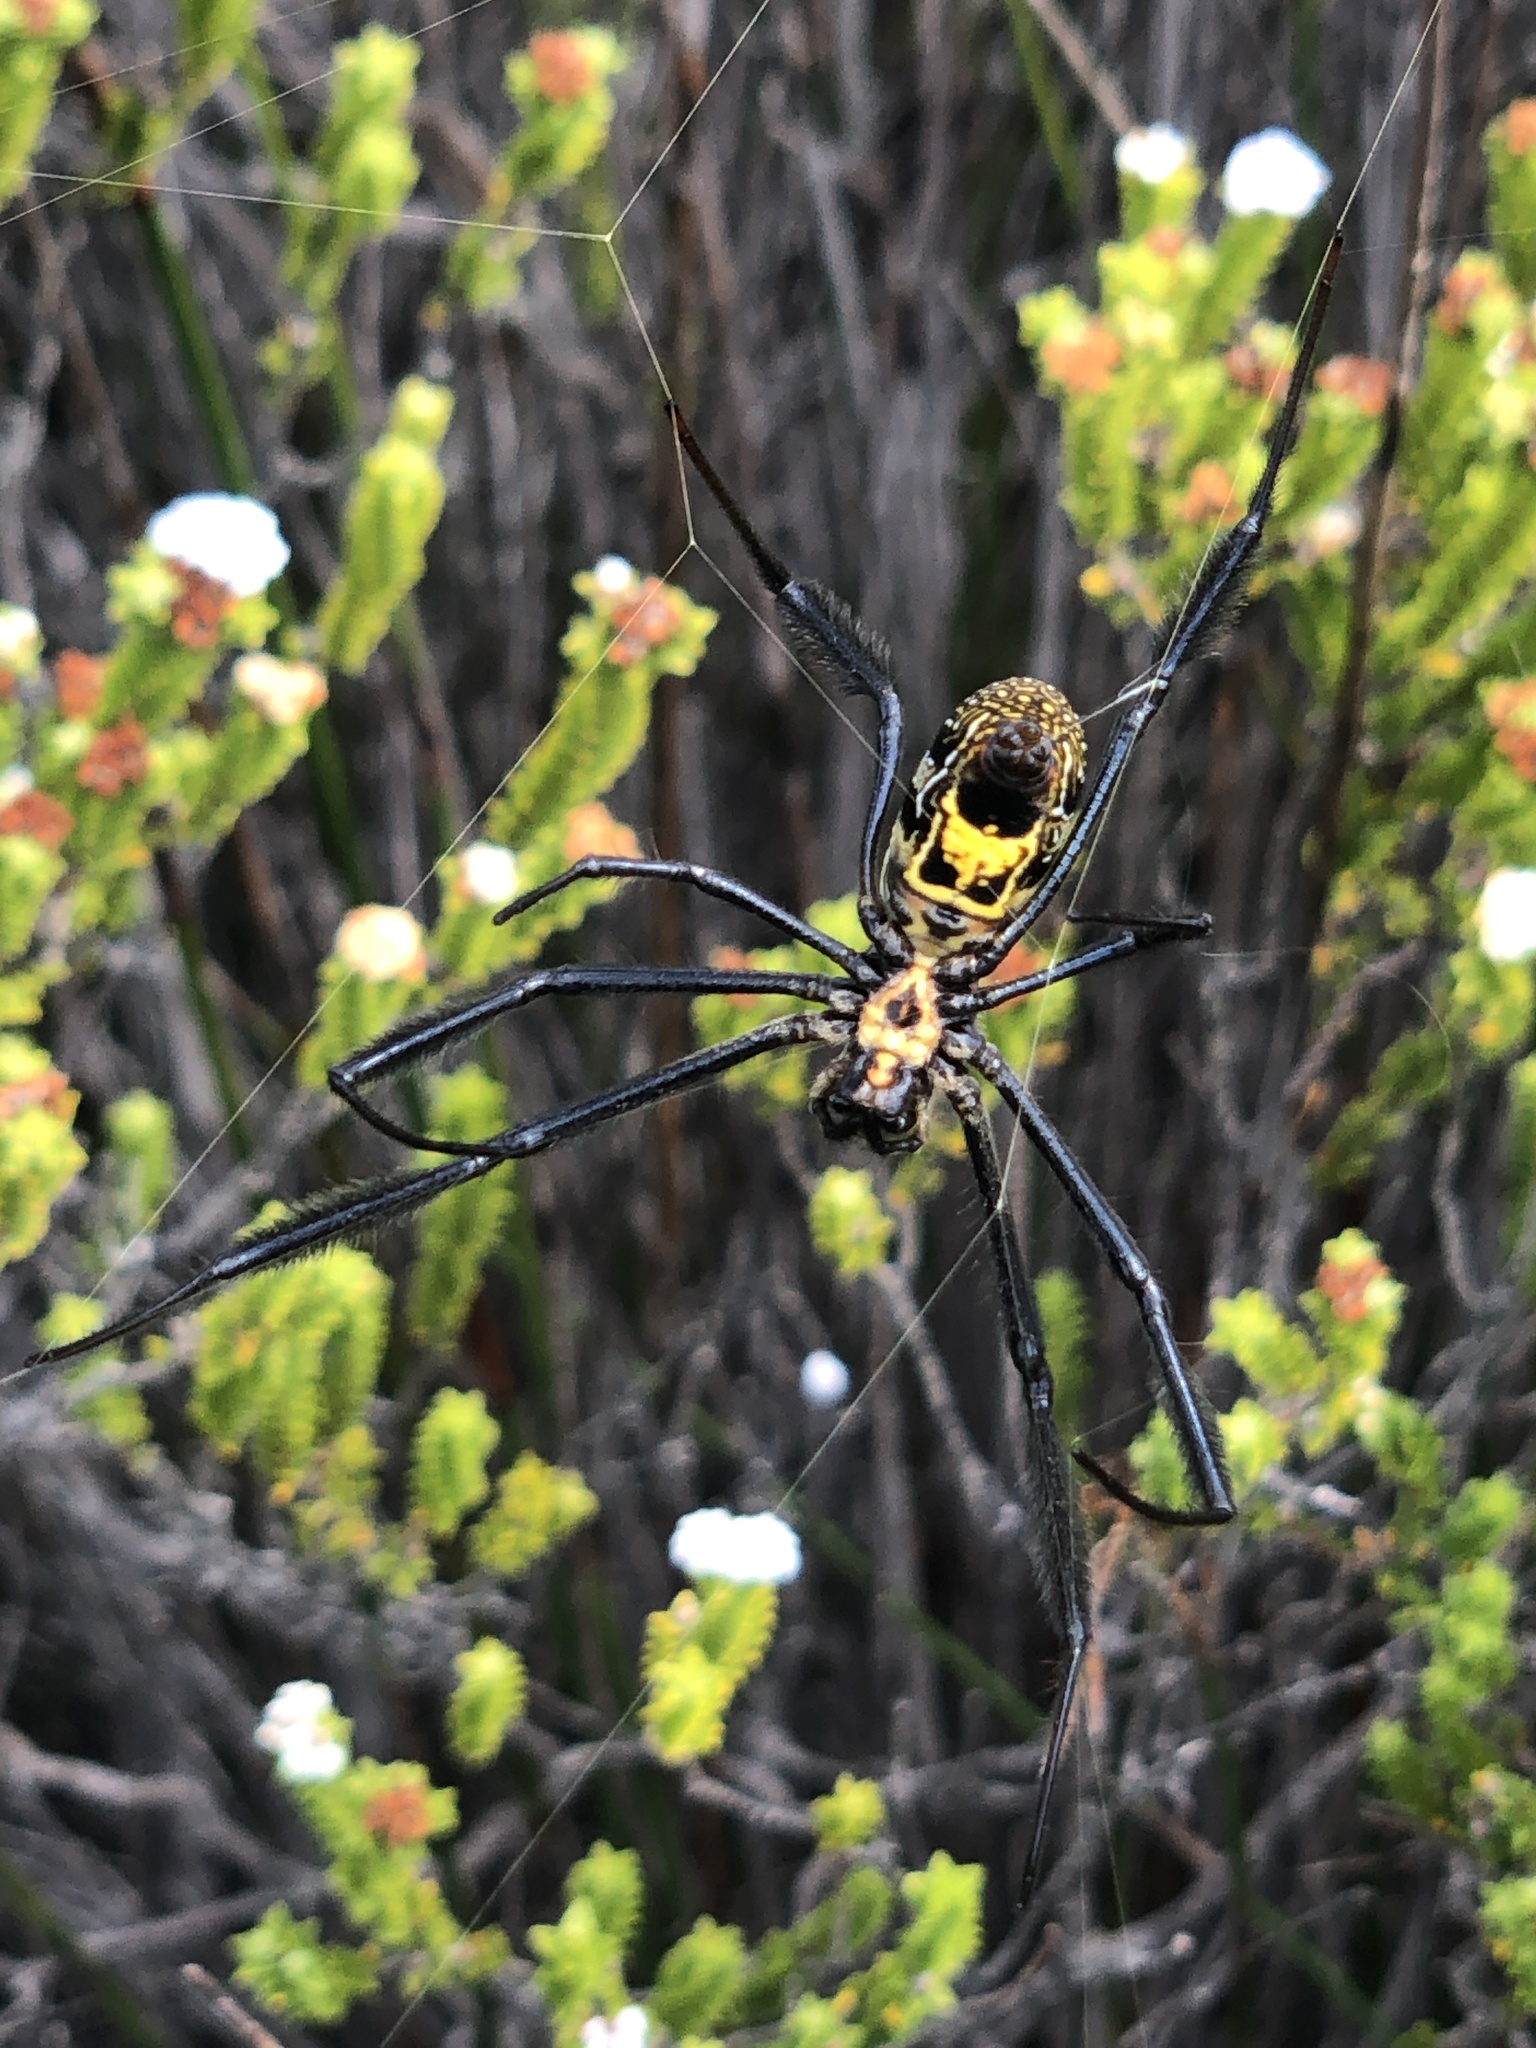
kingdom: Animalia
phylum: Arthropoda
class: Arachnida
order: Araneae
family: Araneidae
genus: Trichonephila
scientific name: Trichonephila fenestrata
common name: Hairy golden orb weaver
